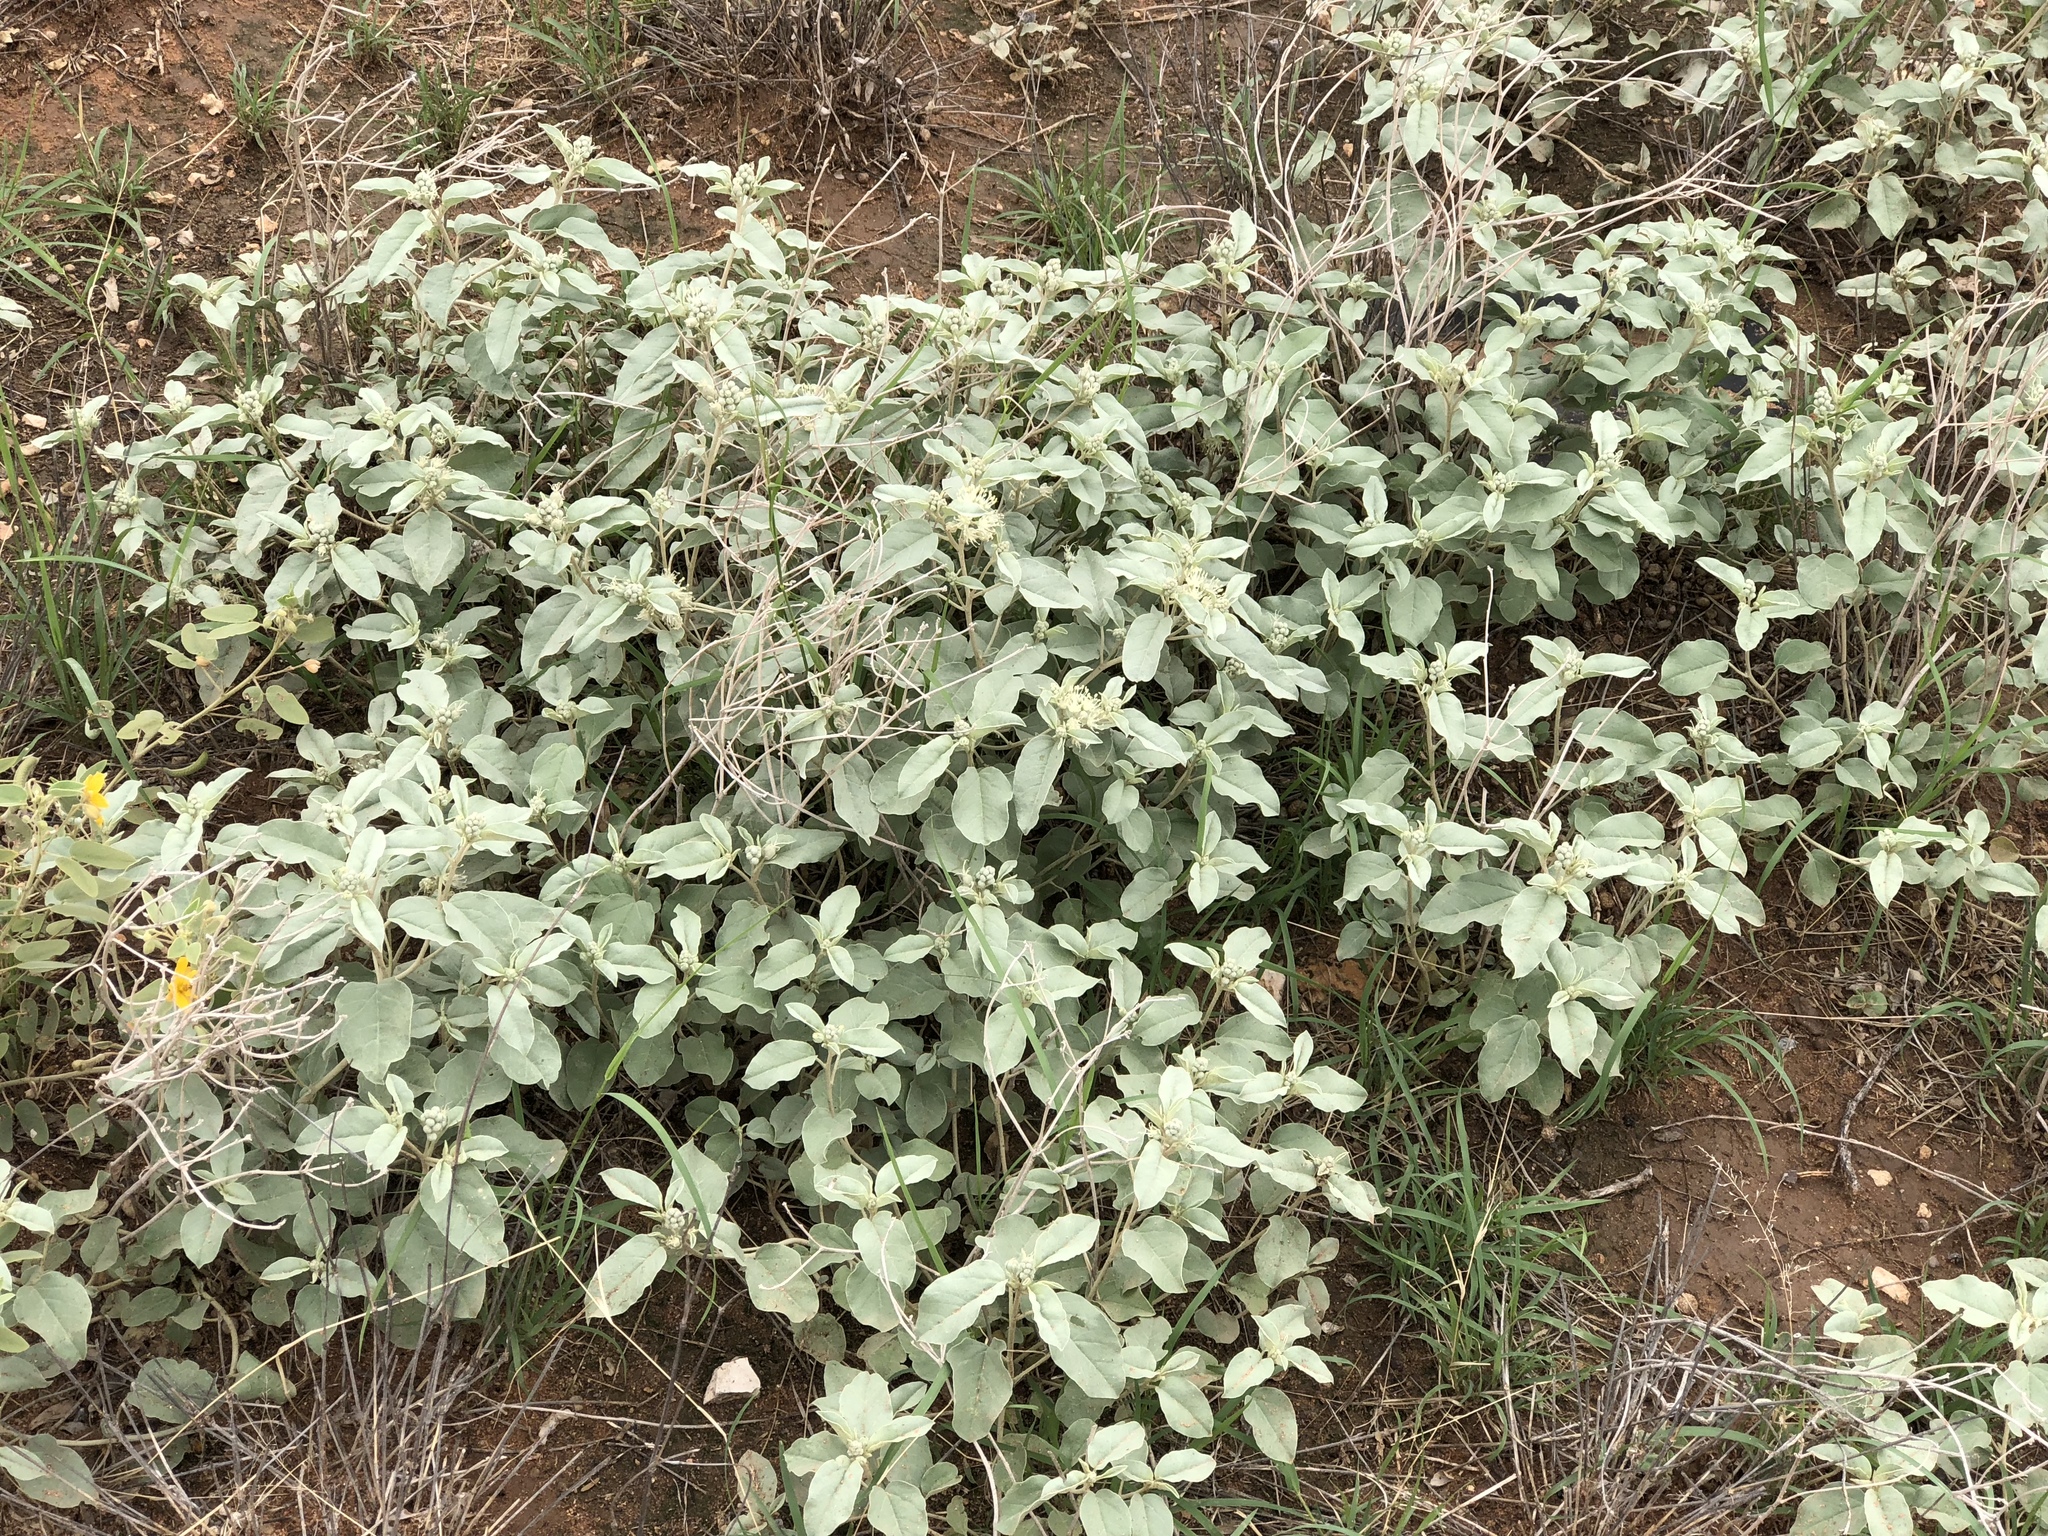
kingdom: Plantae
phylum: Tracheophyta
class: Magnoliopsida
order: Malpighiales
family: Euphorbiaceae
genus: Croton
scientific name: Croton pottsii
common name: Leatherweed
